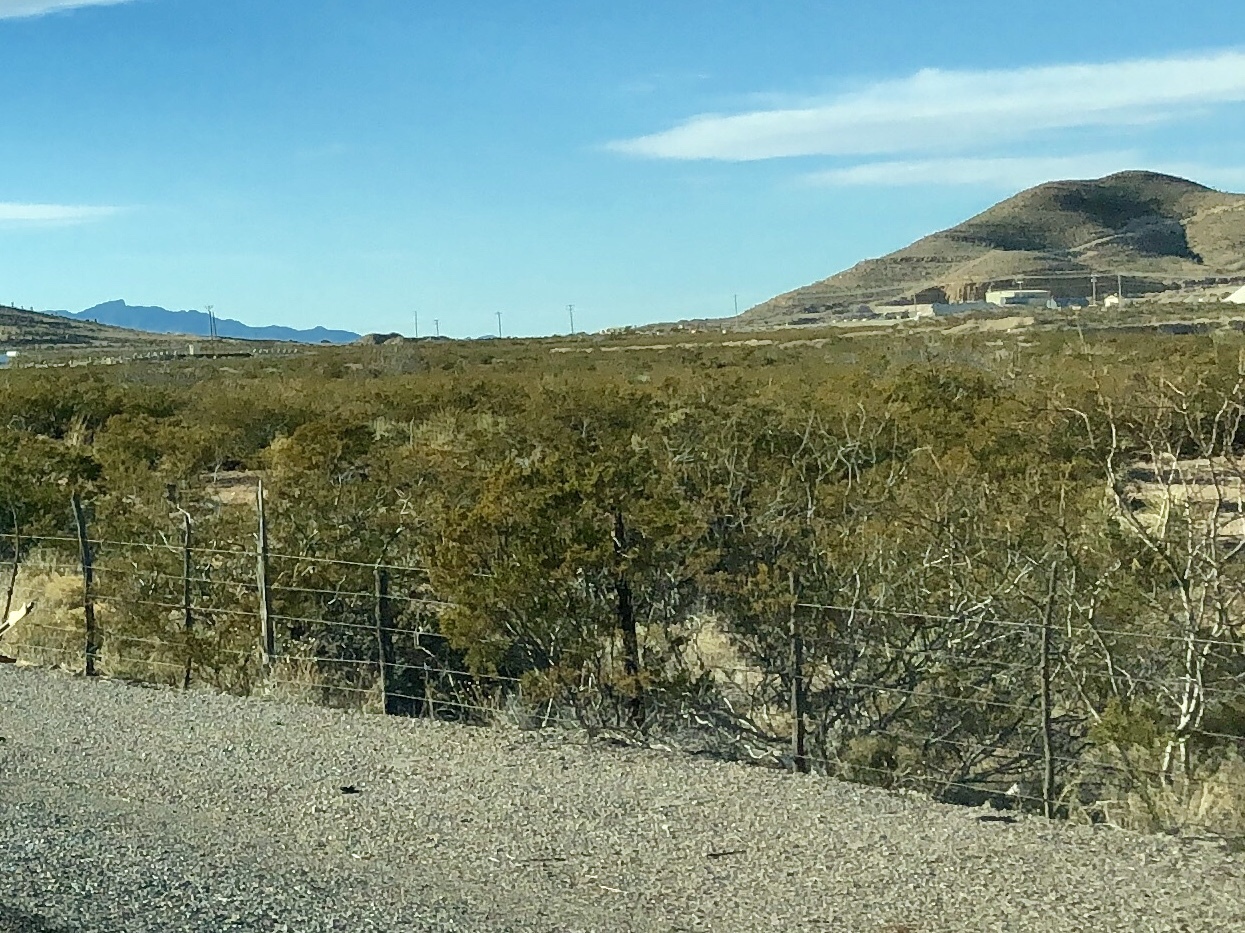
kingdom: Plantae
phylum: Tracheophyta
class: Magnoliopsida
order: Zygophyllales
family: Zygophyllaceae
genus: Larrea
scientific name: Larrea tridentata
